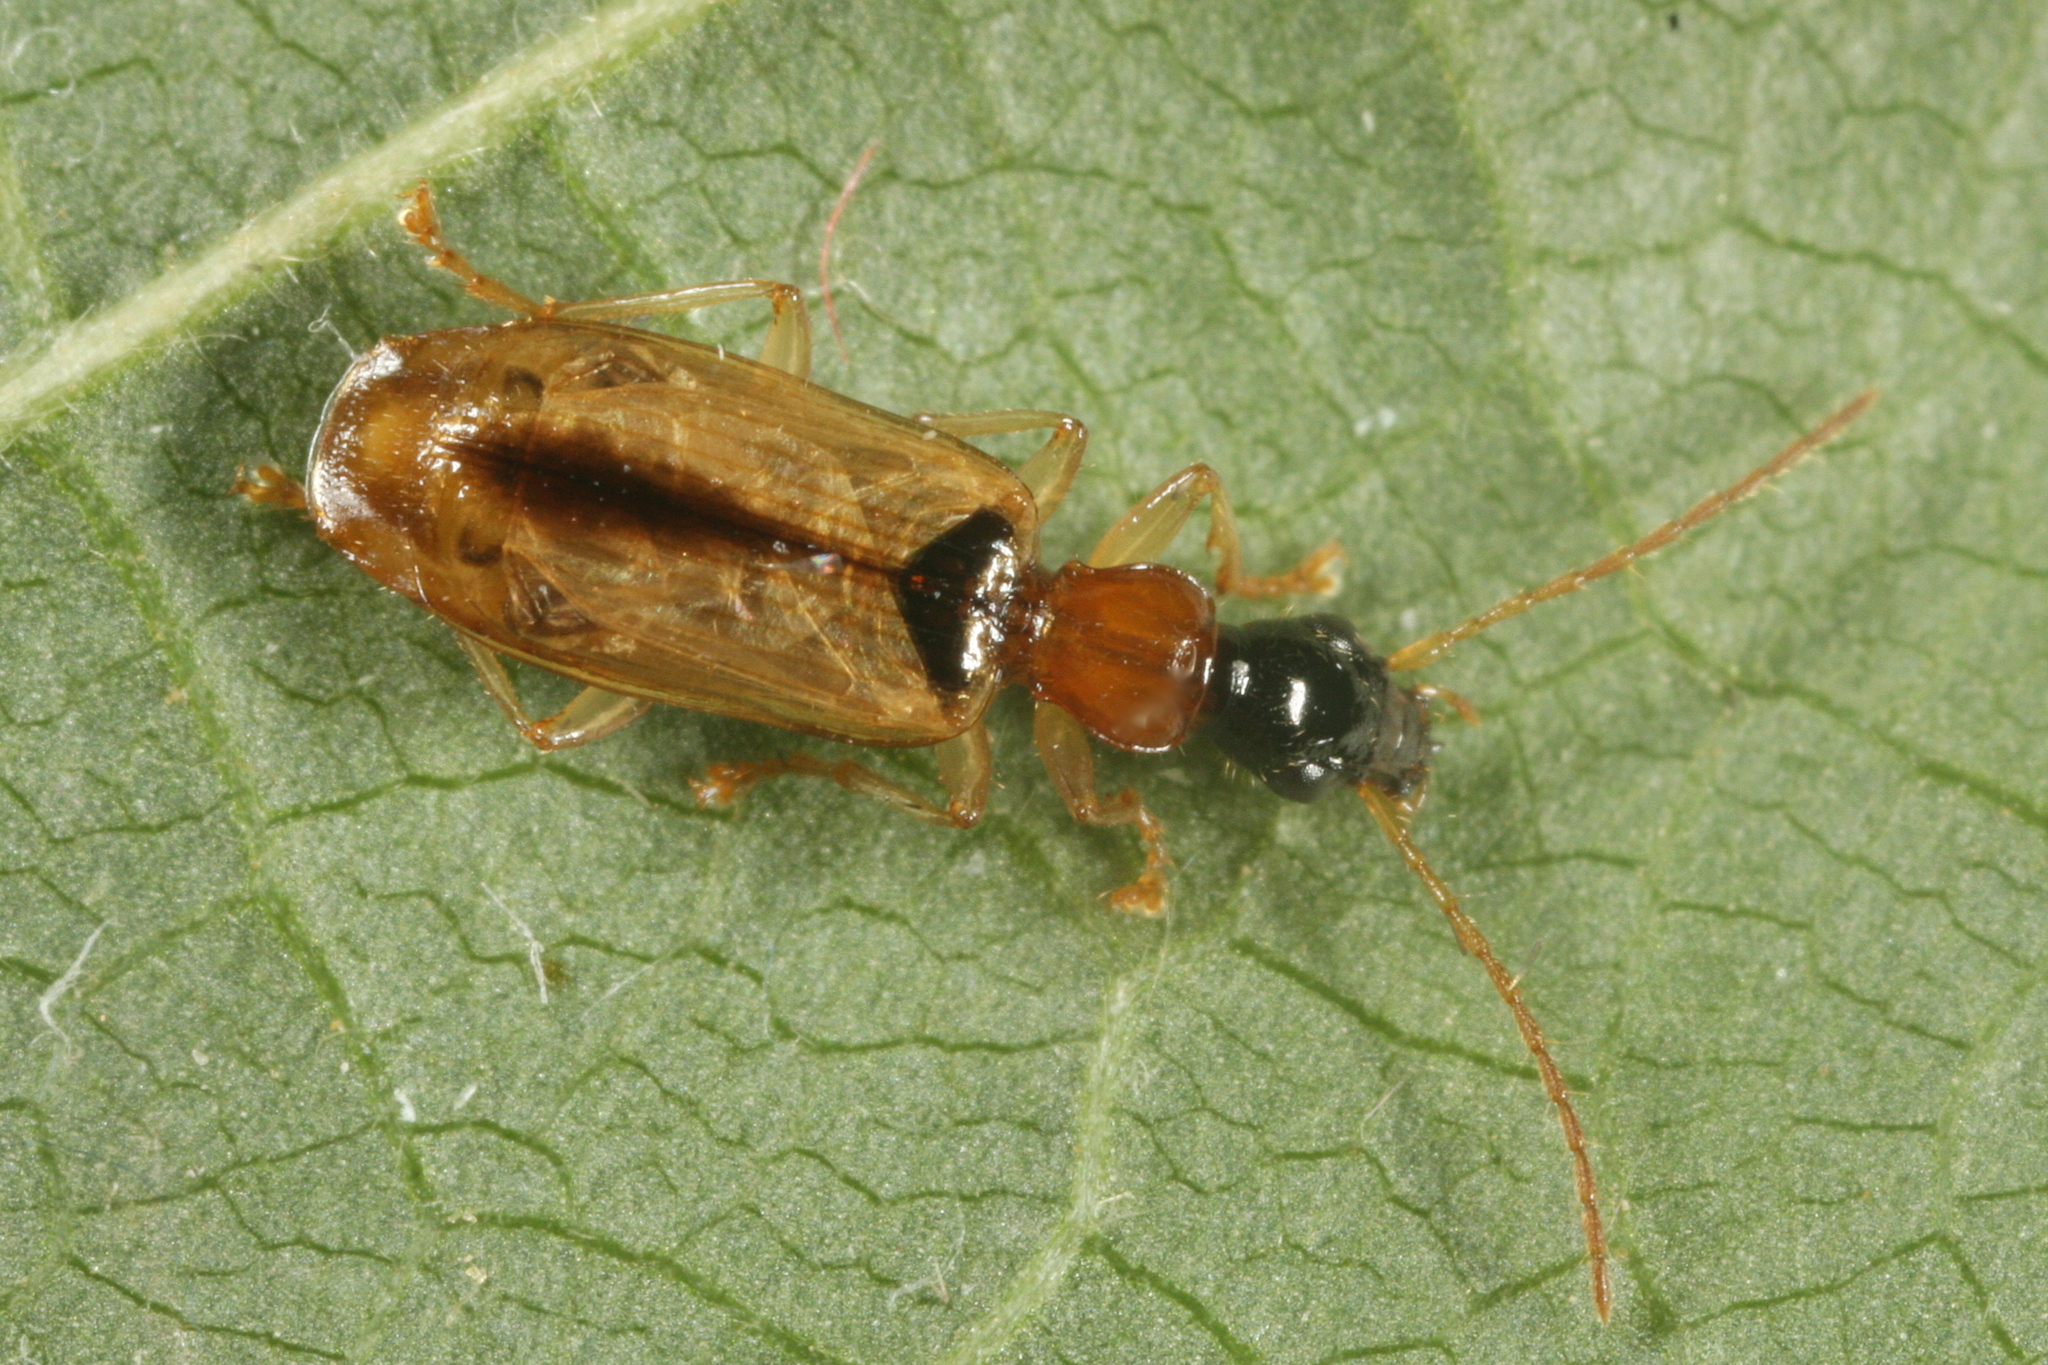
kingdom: Animalia
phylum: Arthropoda
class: Insecta
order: Coleoptera
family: Carabidae
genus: Demetrias
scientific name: Demetrias atricapillus
